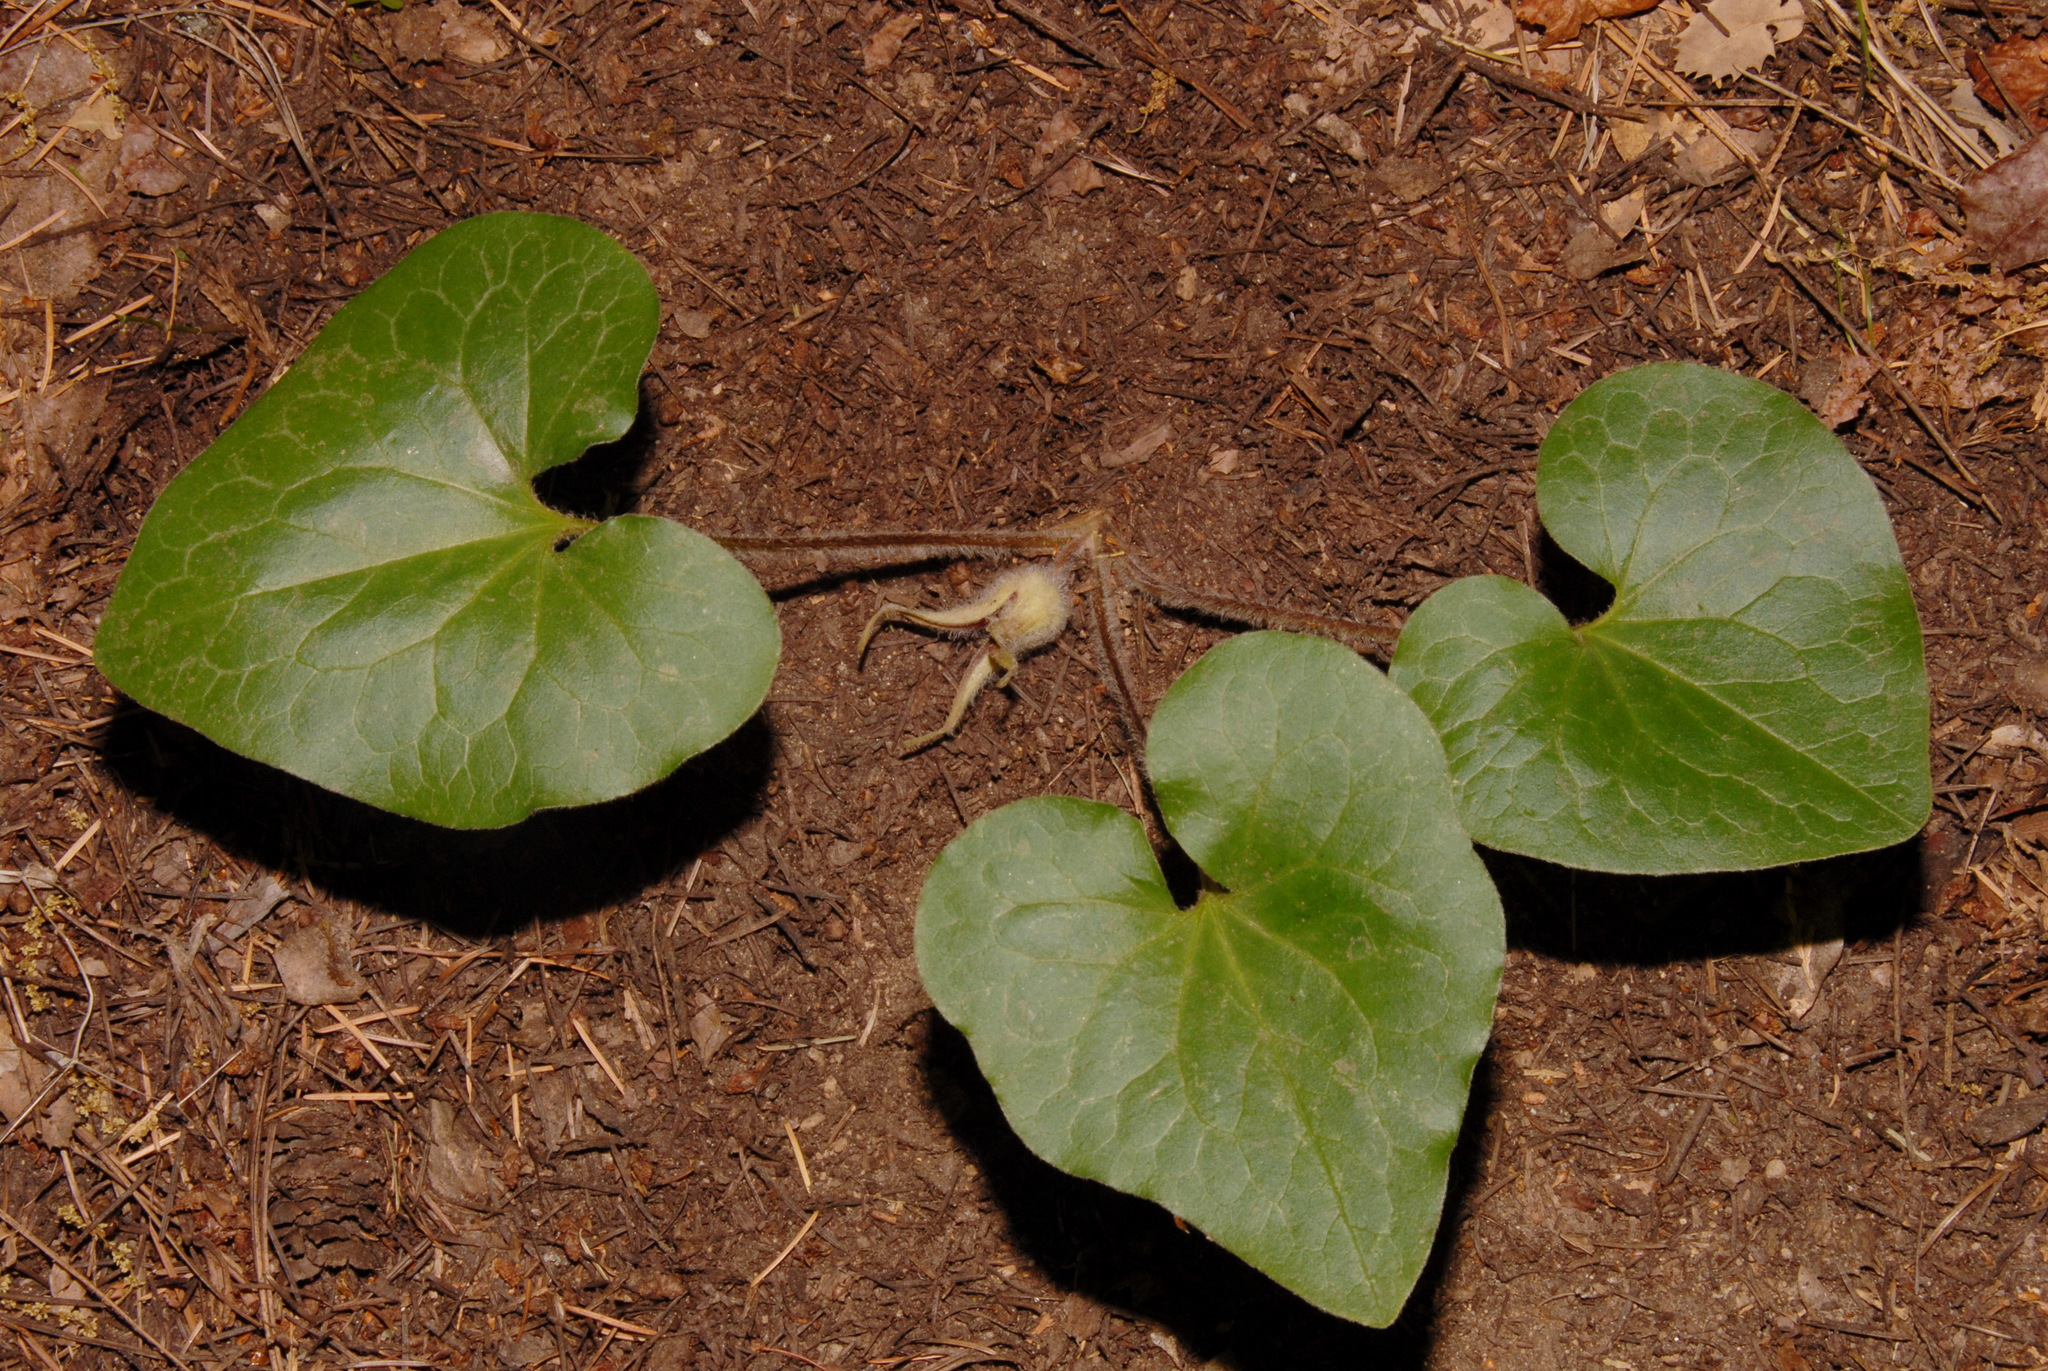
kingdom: Plantae
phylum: Tracheophyta
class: Magnoliopsida
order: Piperales
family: Aristolochiaceae
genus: Asarum
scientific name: Asarum hartwegii
